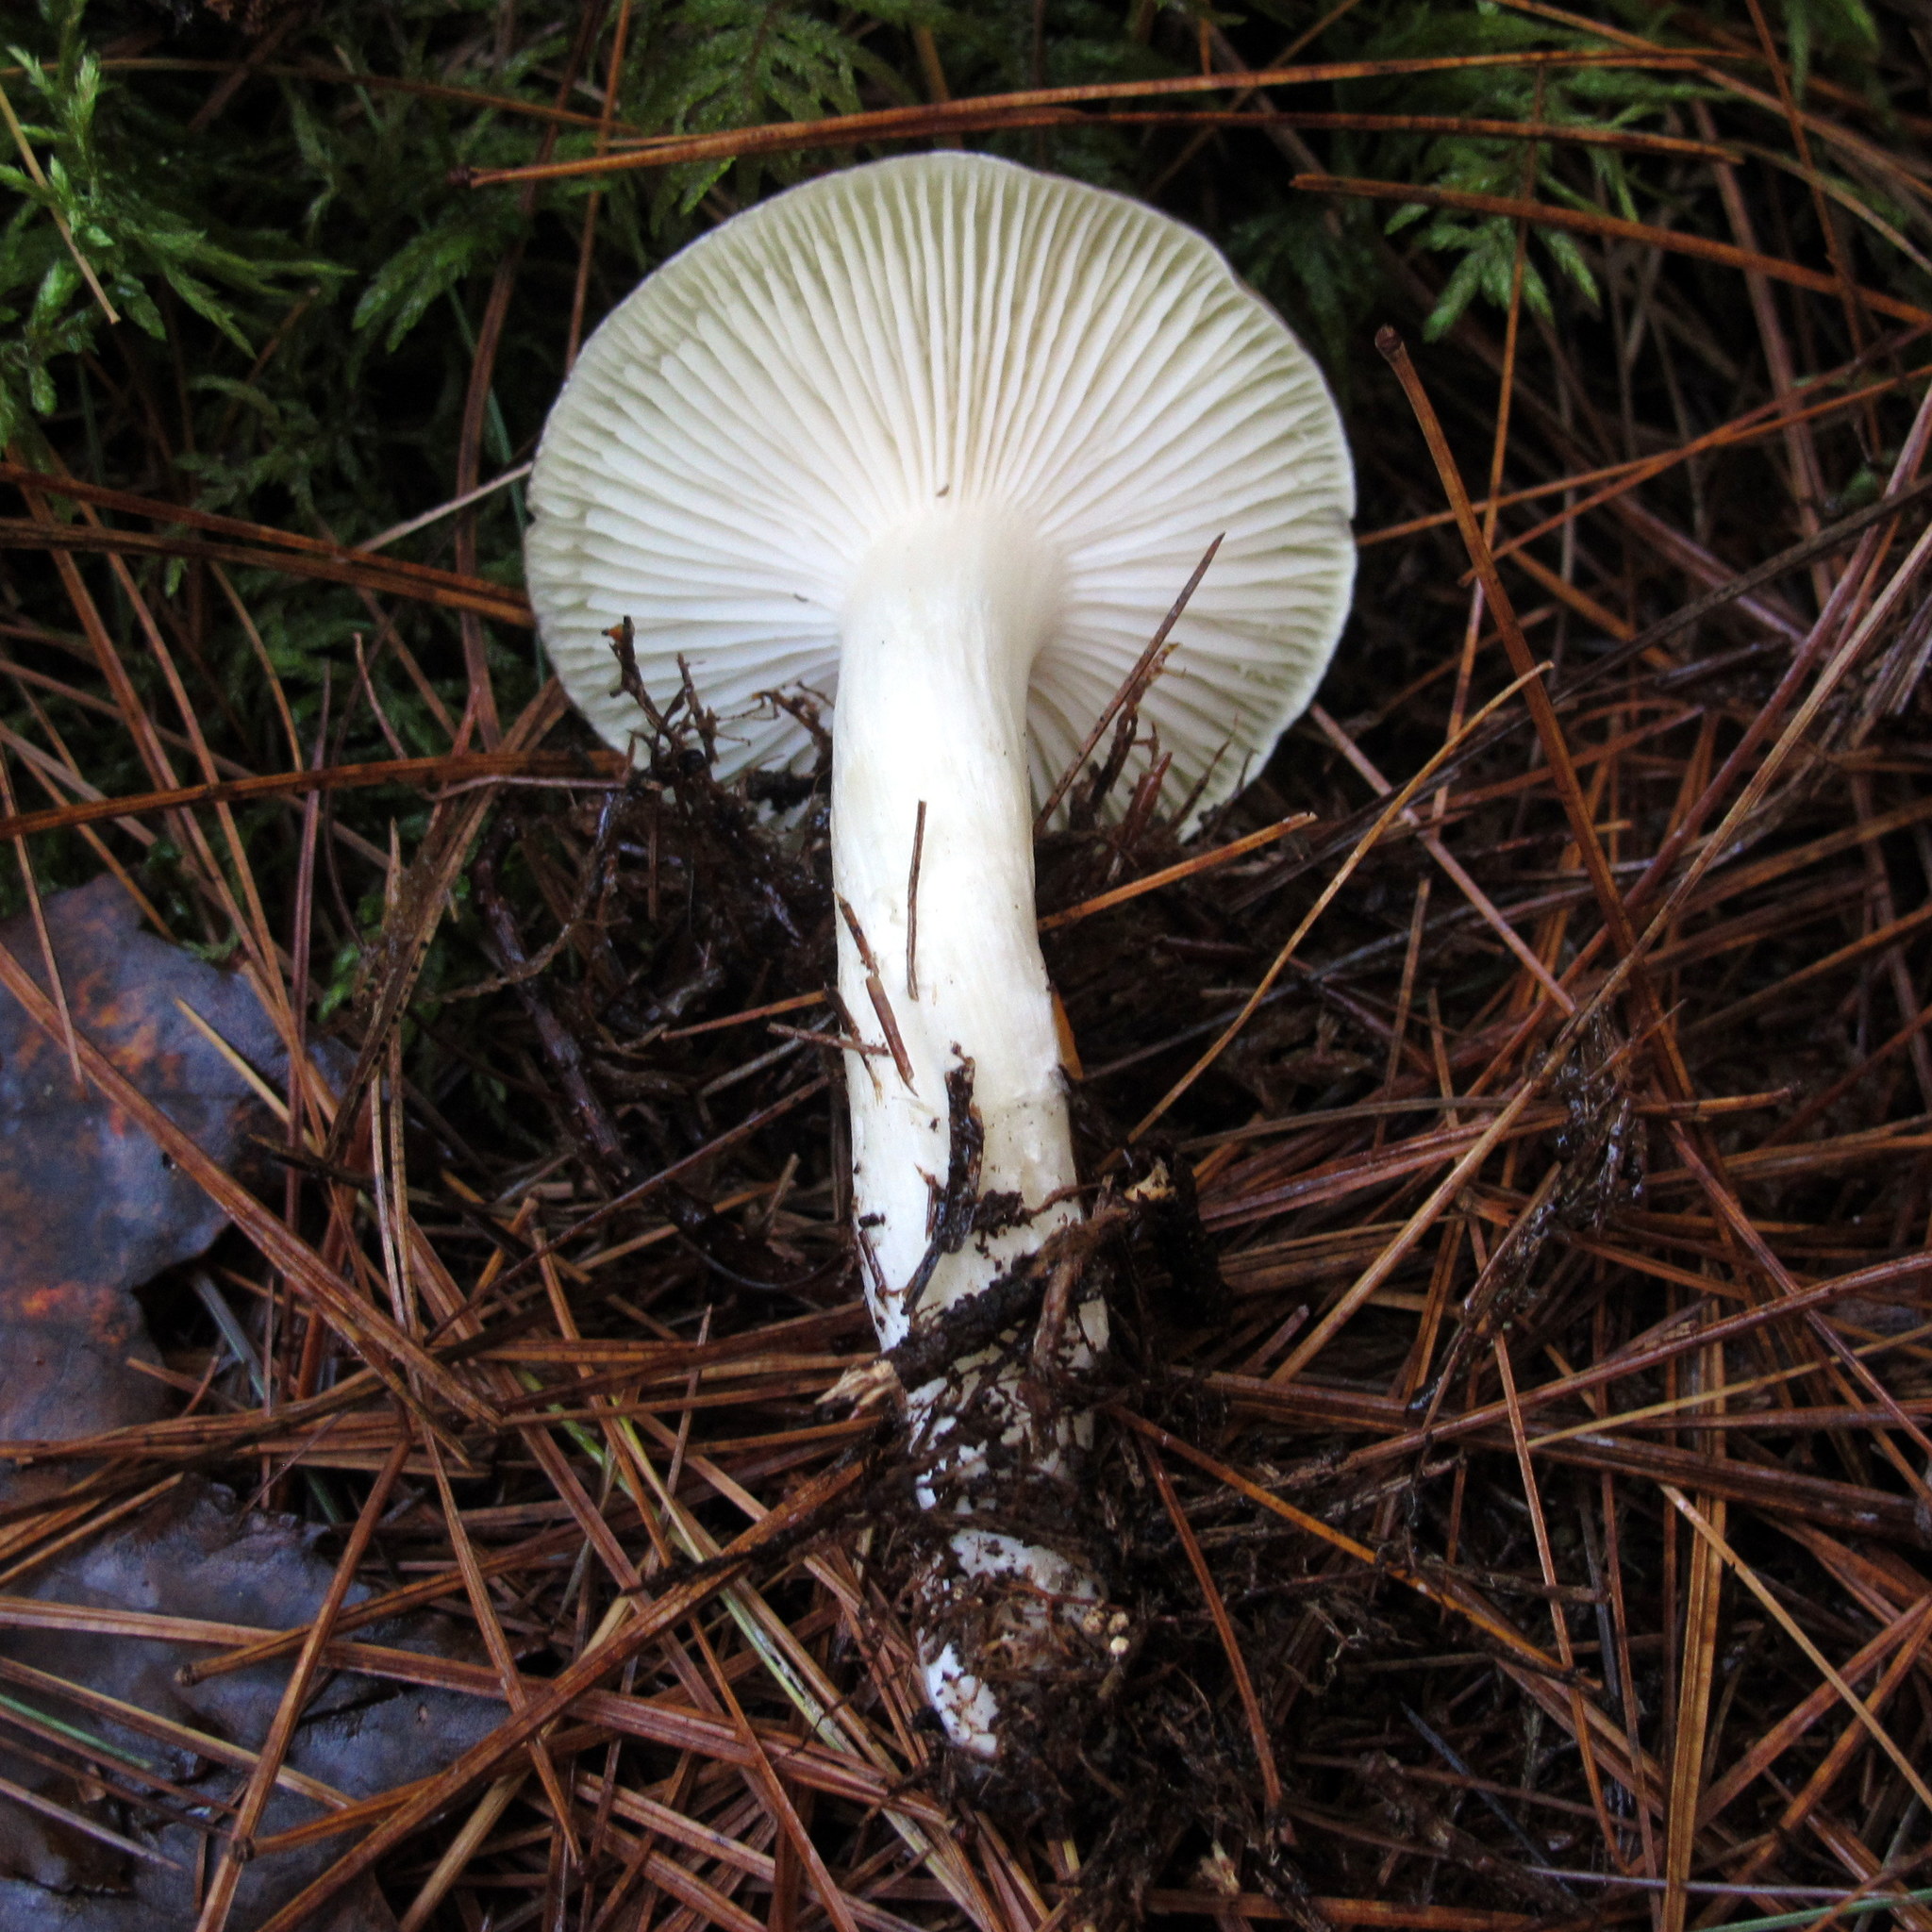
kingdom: Fungi
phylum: Basidiomycota
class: Agaricomycetes
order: Agaricales
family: Hygrophoraceae
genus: Hygrophorus
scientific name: Hygrophorus fuligineus
